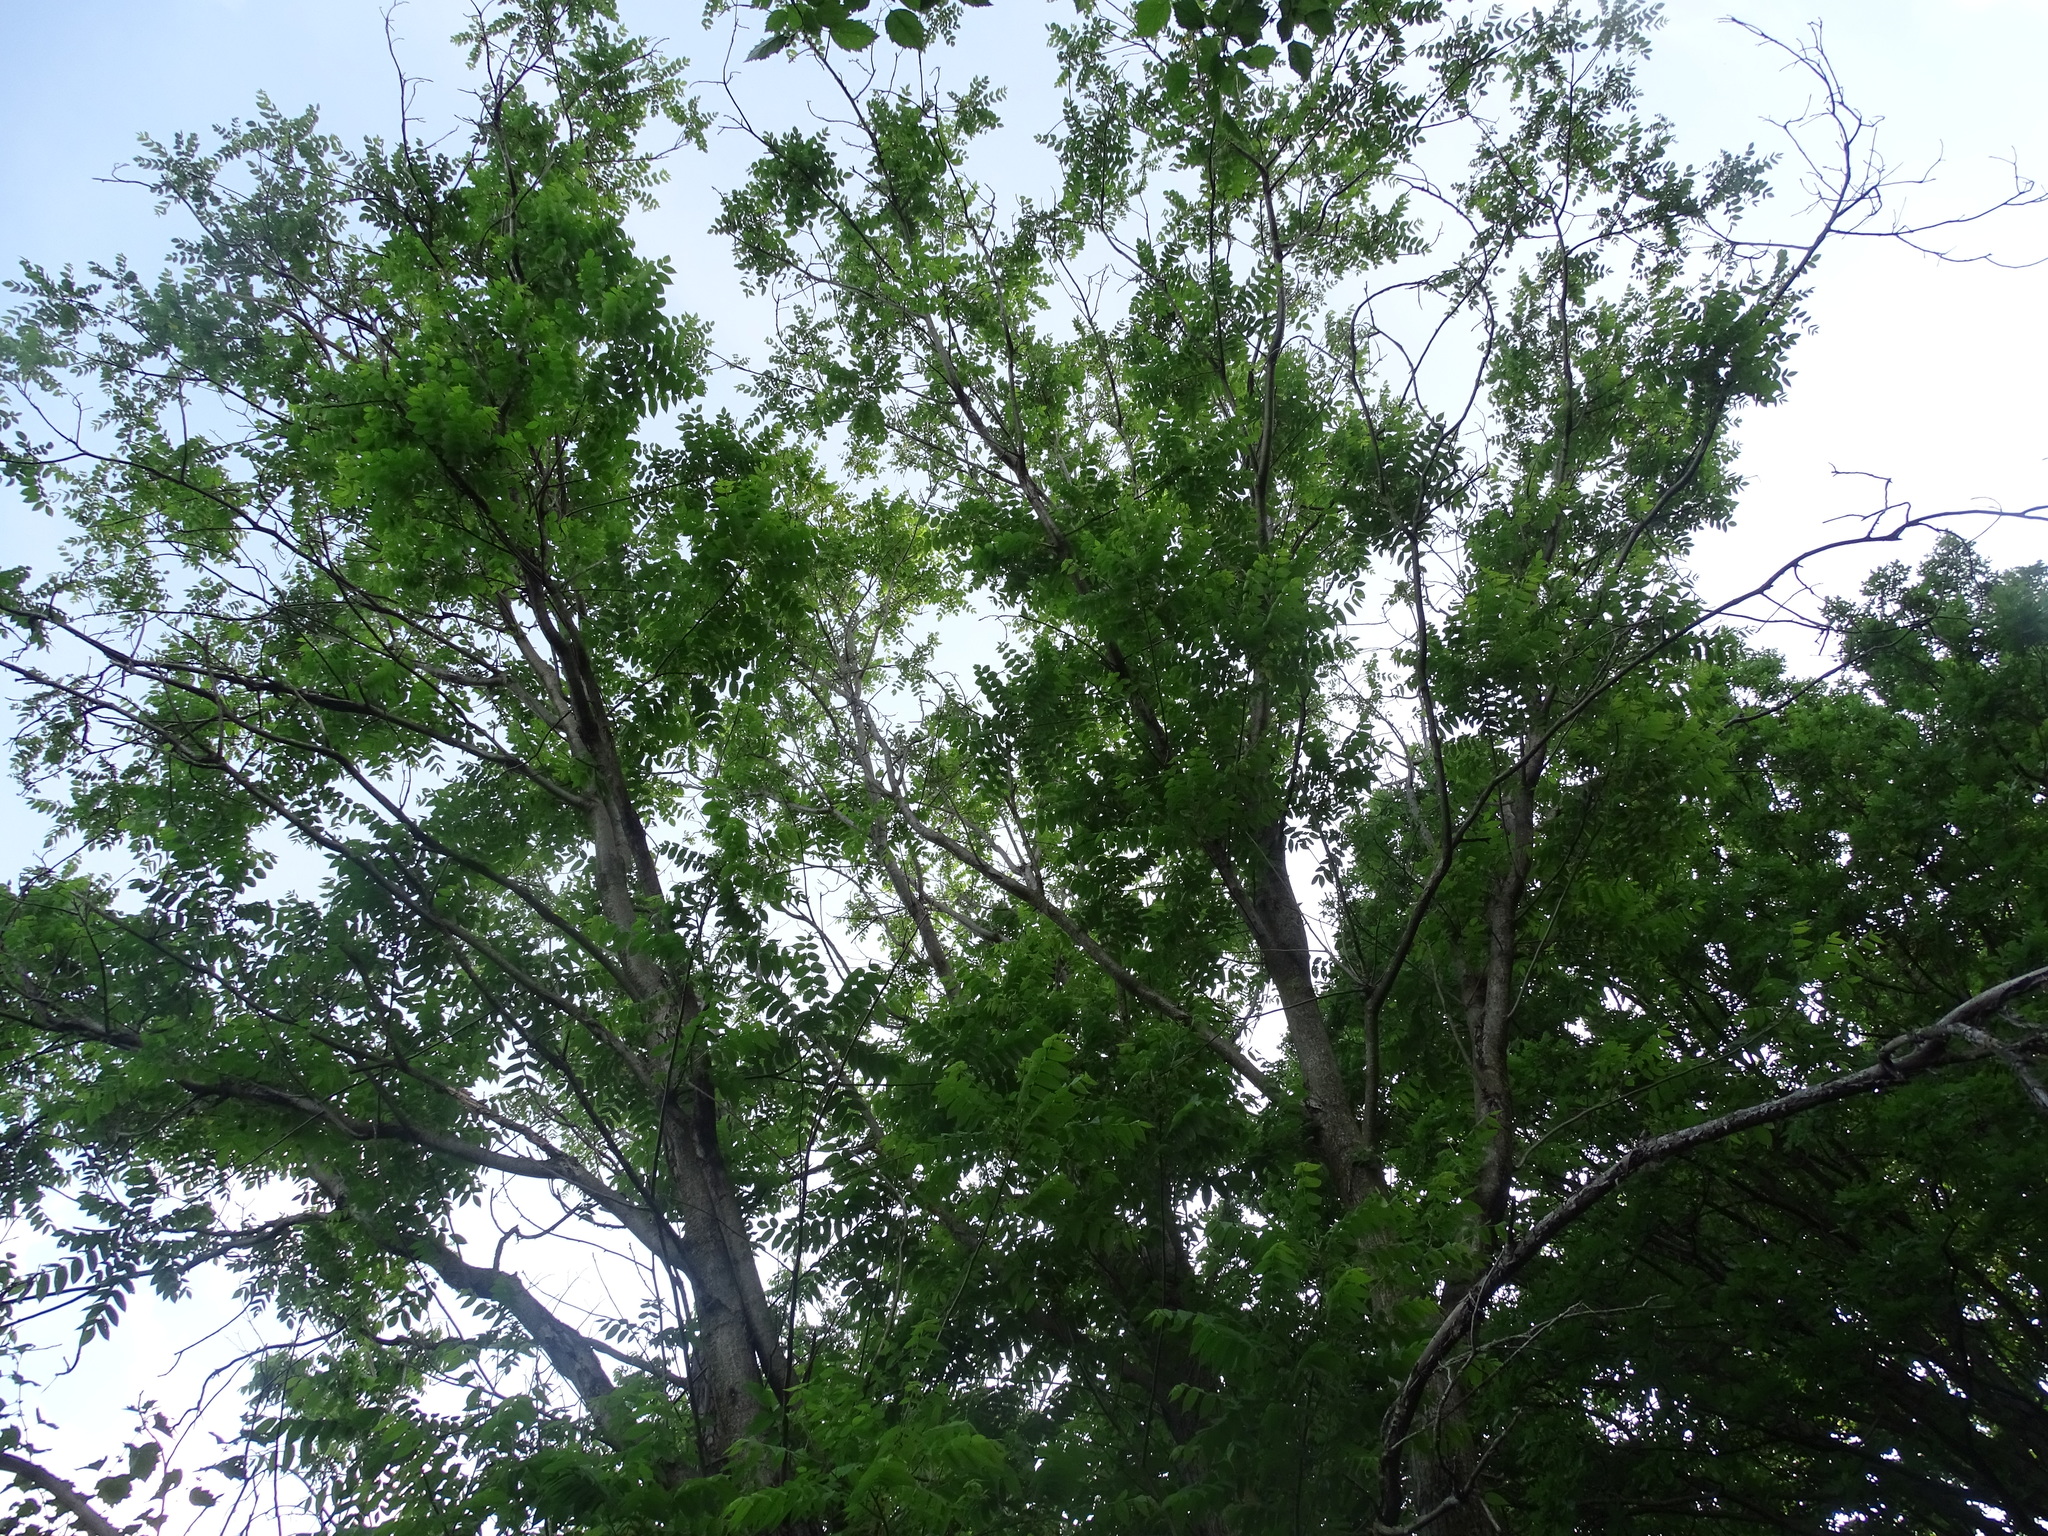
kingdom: Plantae
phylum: Tracheophyta
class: Magnoliopsida
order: Fagales
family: Juglandaceae
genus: Juglans
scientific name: Juglans cinerea
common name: Butternut
